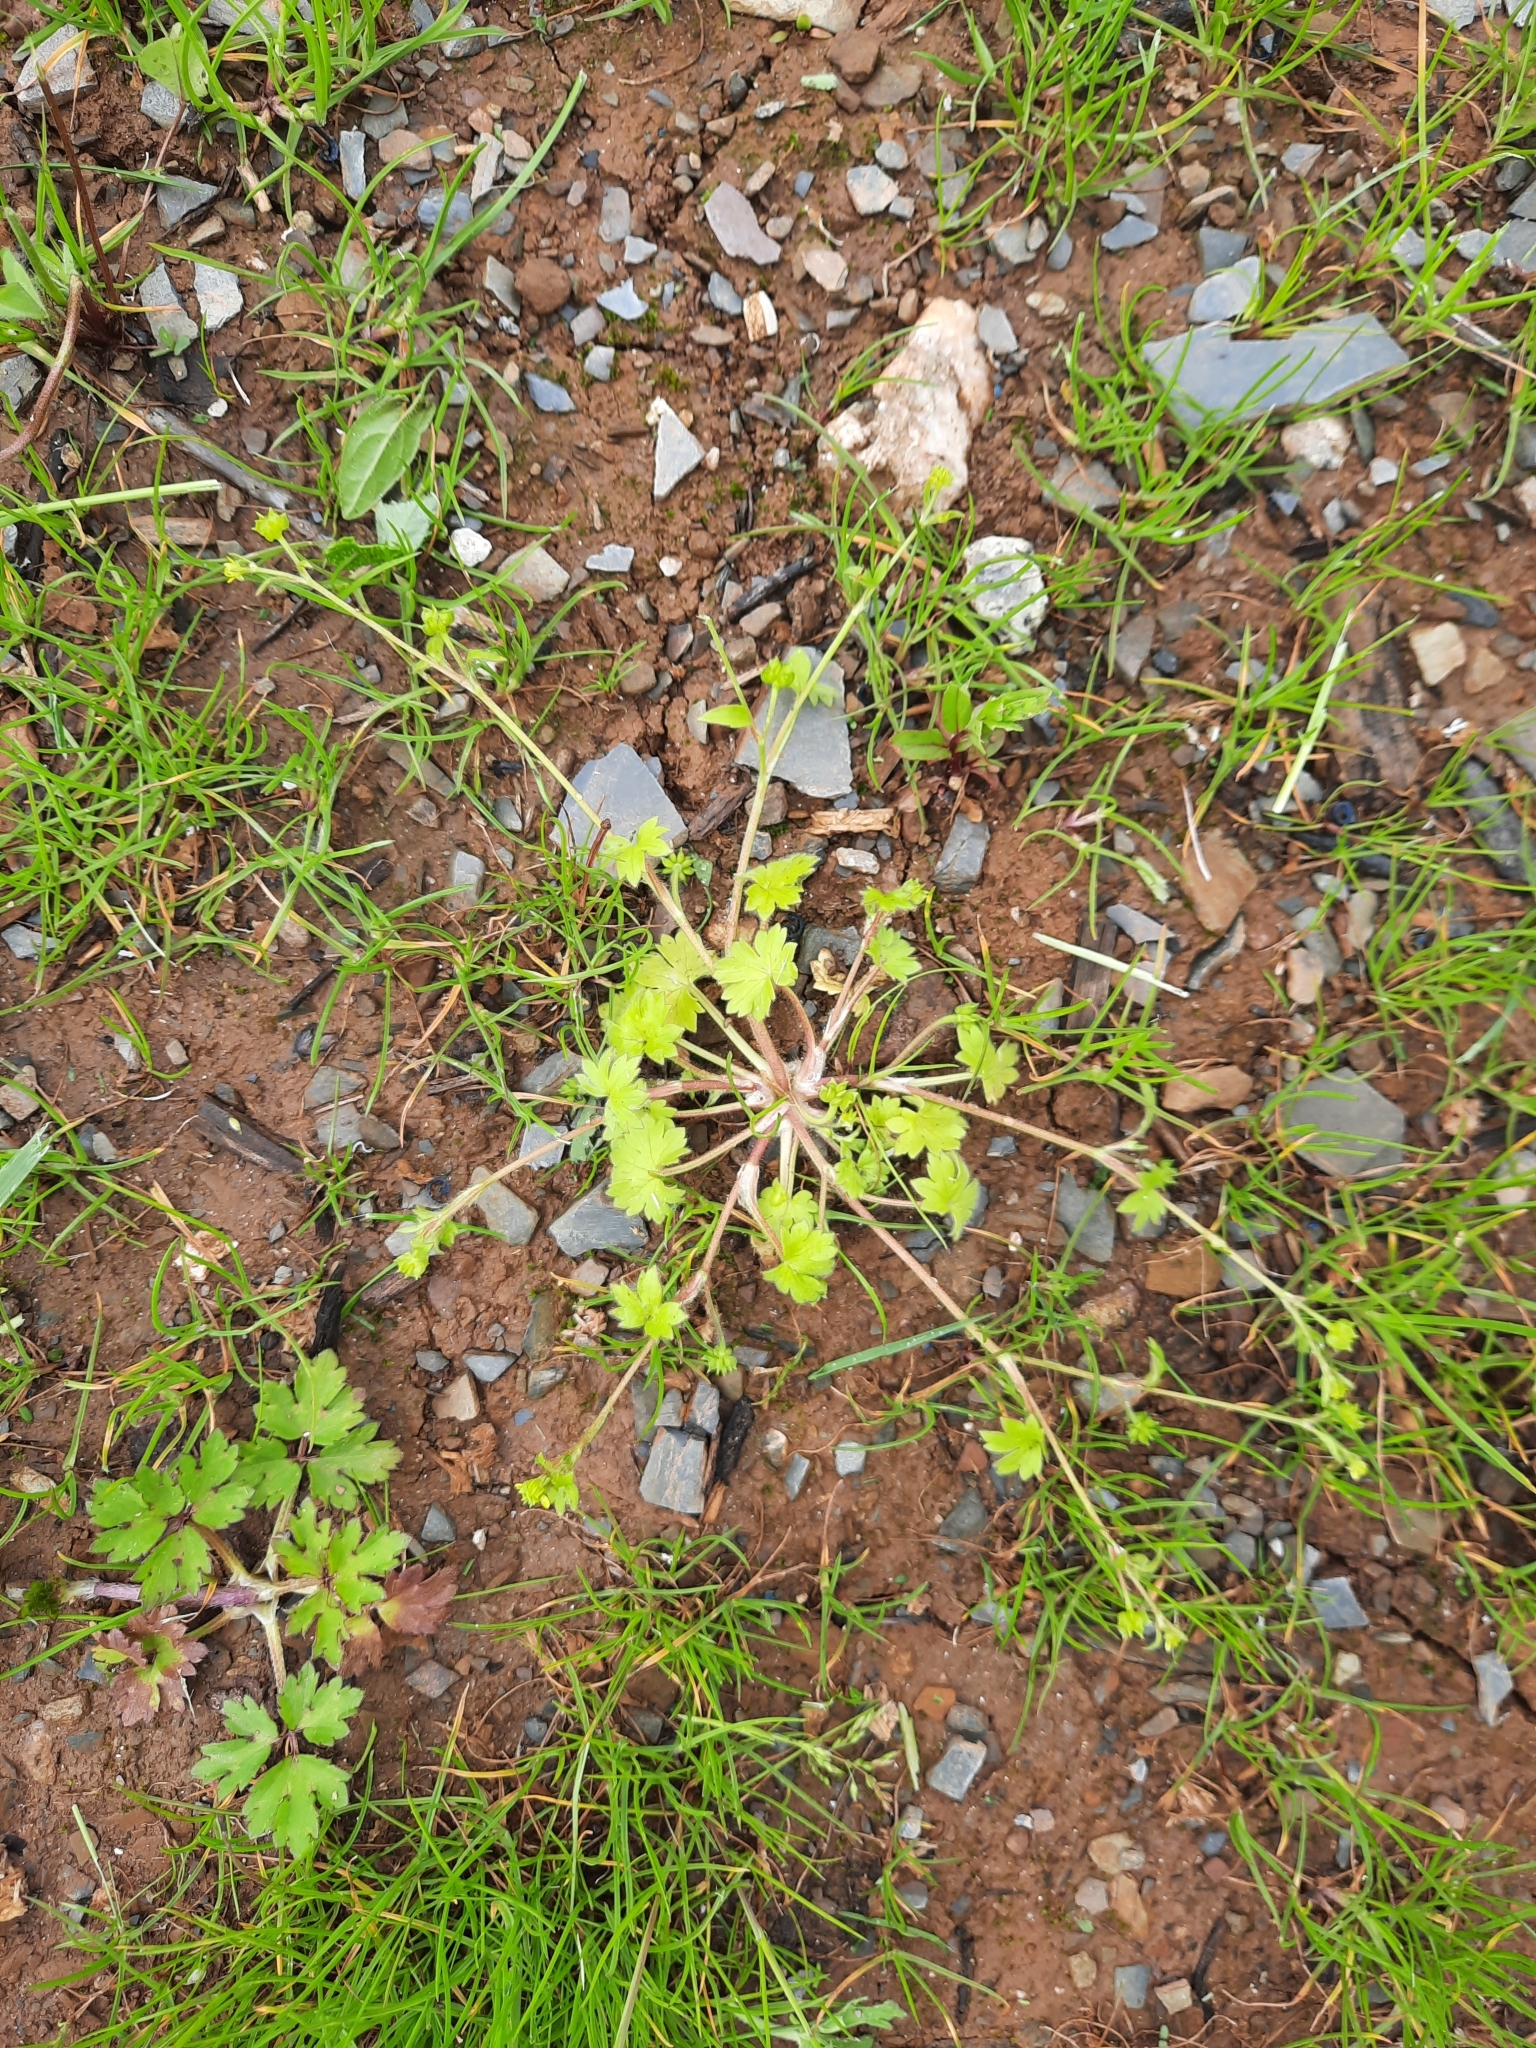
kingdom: Plantae
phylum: Tracheophyta
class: Magnoliopsida
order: Ranunculales
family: Ranunculaceae
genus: Ranunculus
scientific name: Ranunculus parviflorus
